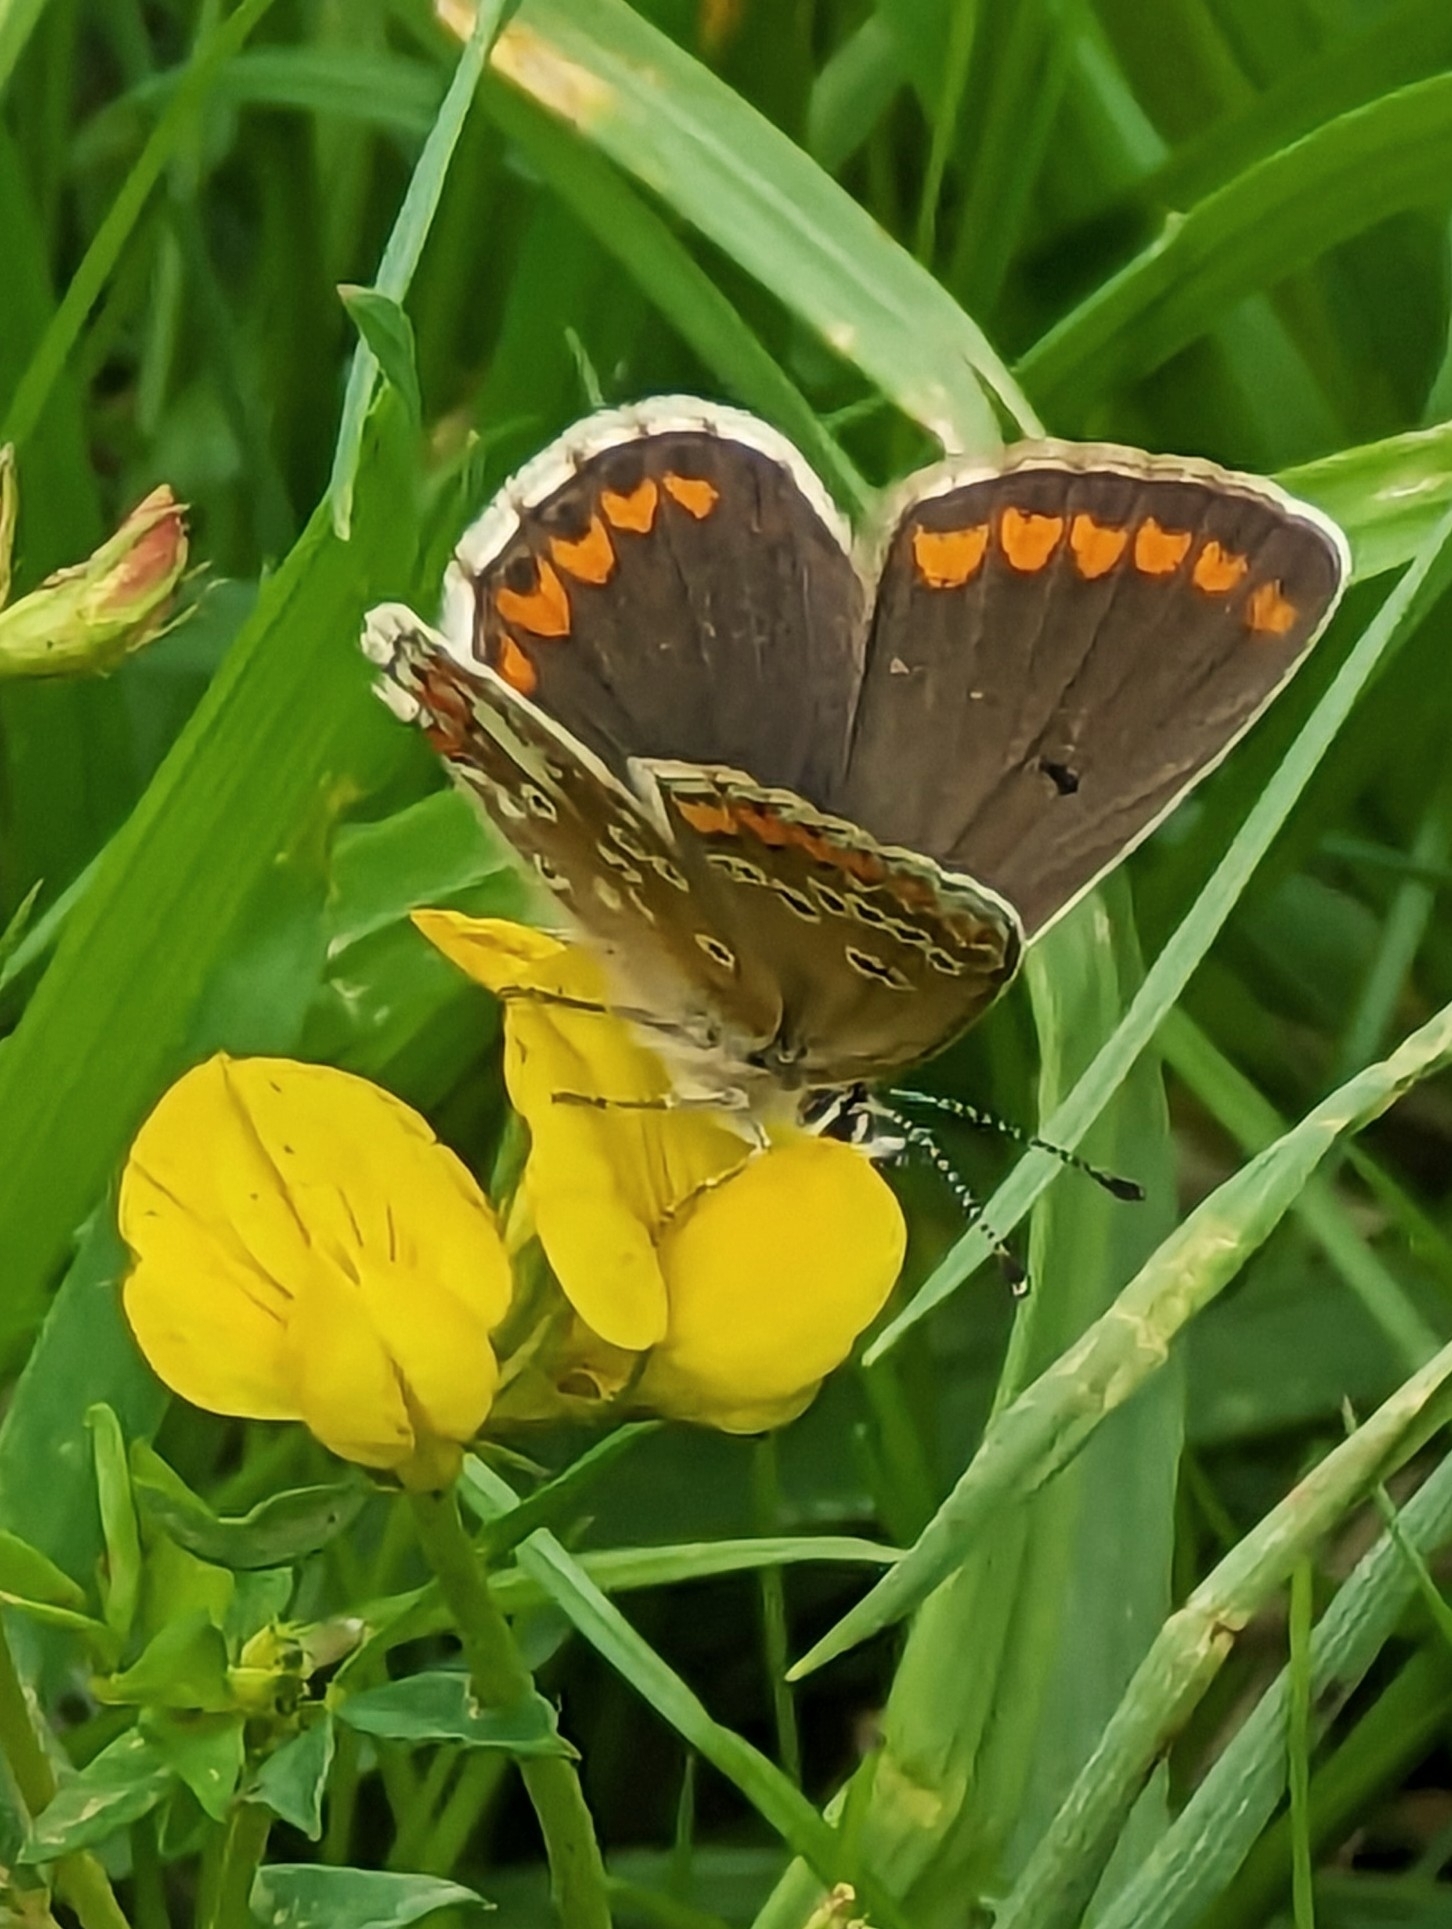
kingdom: Animalia
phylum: Arthropoda
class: Insecta
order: Lepidoptera
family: Lycaenidae
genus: Aricia
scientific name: Aricia agestis
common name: Brown argus
